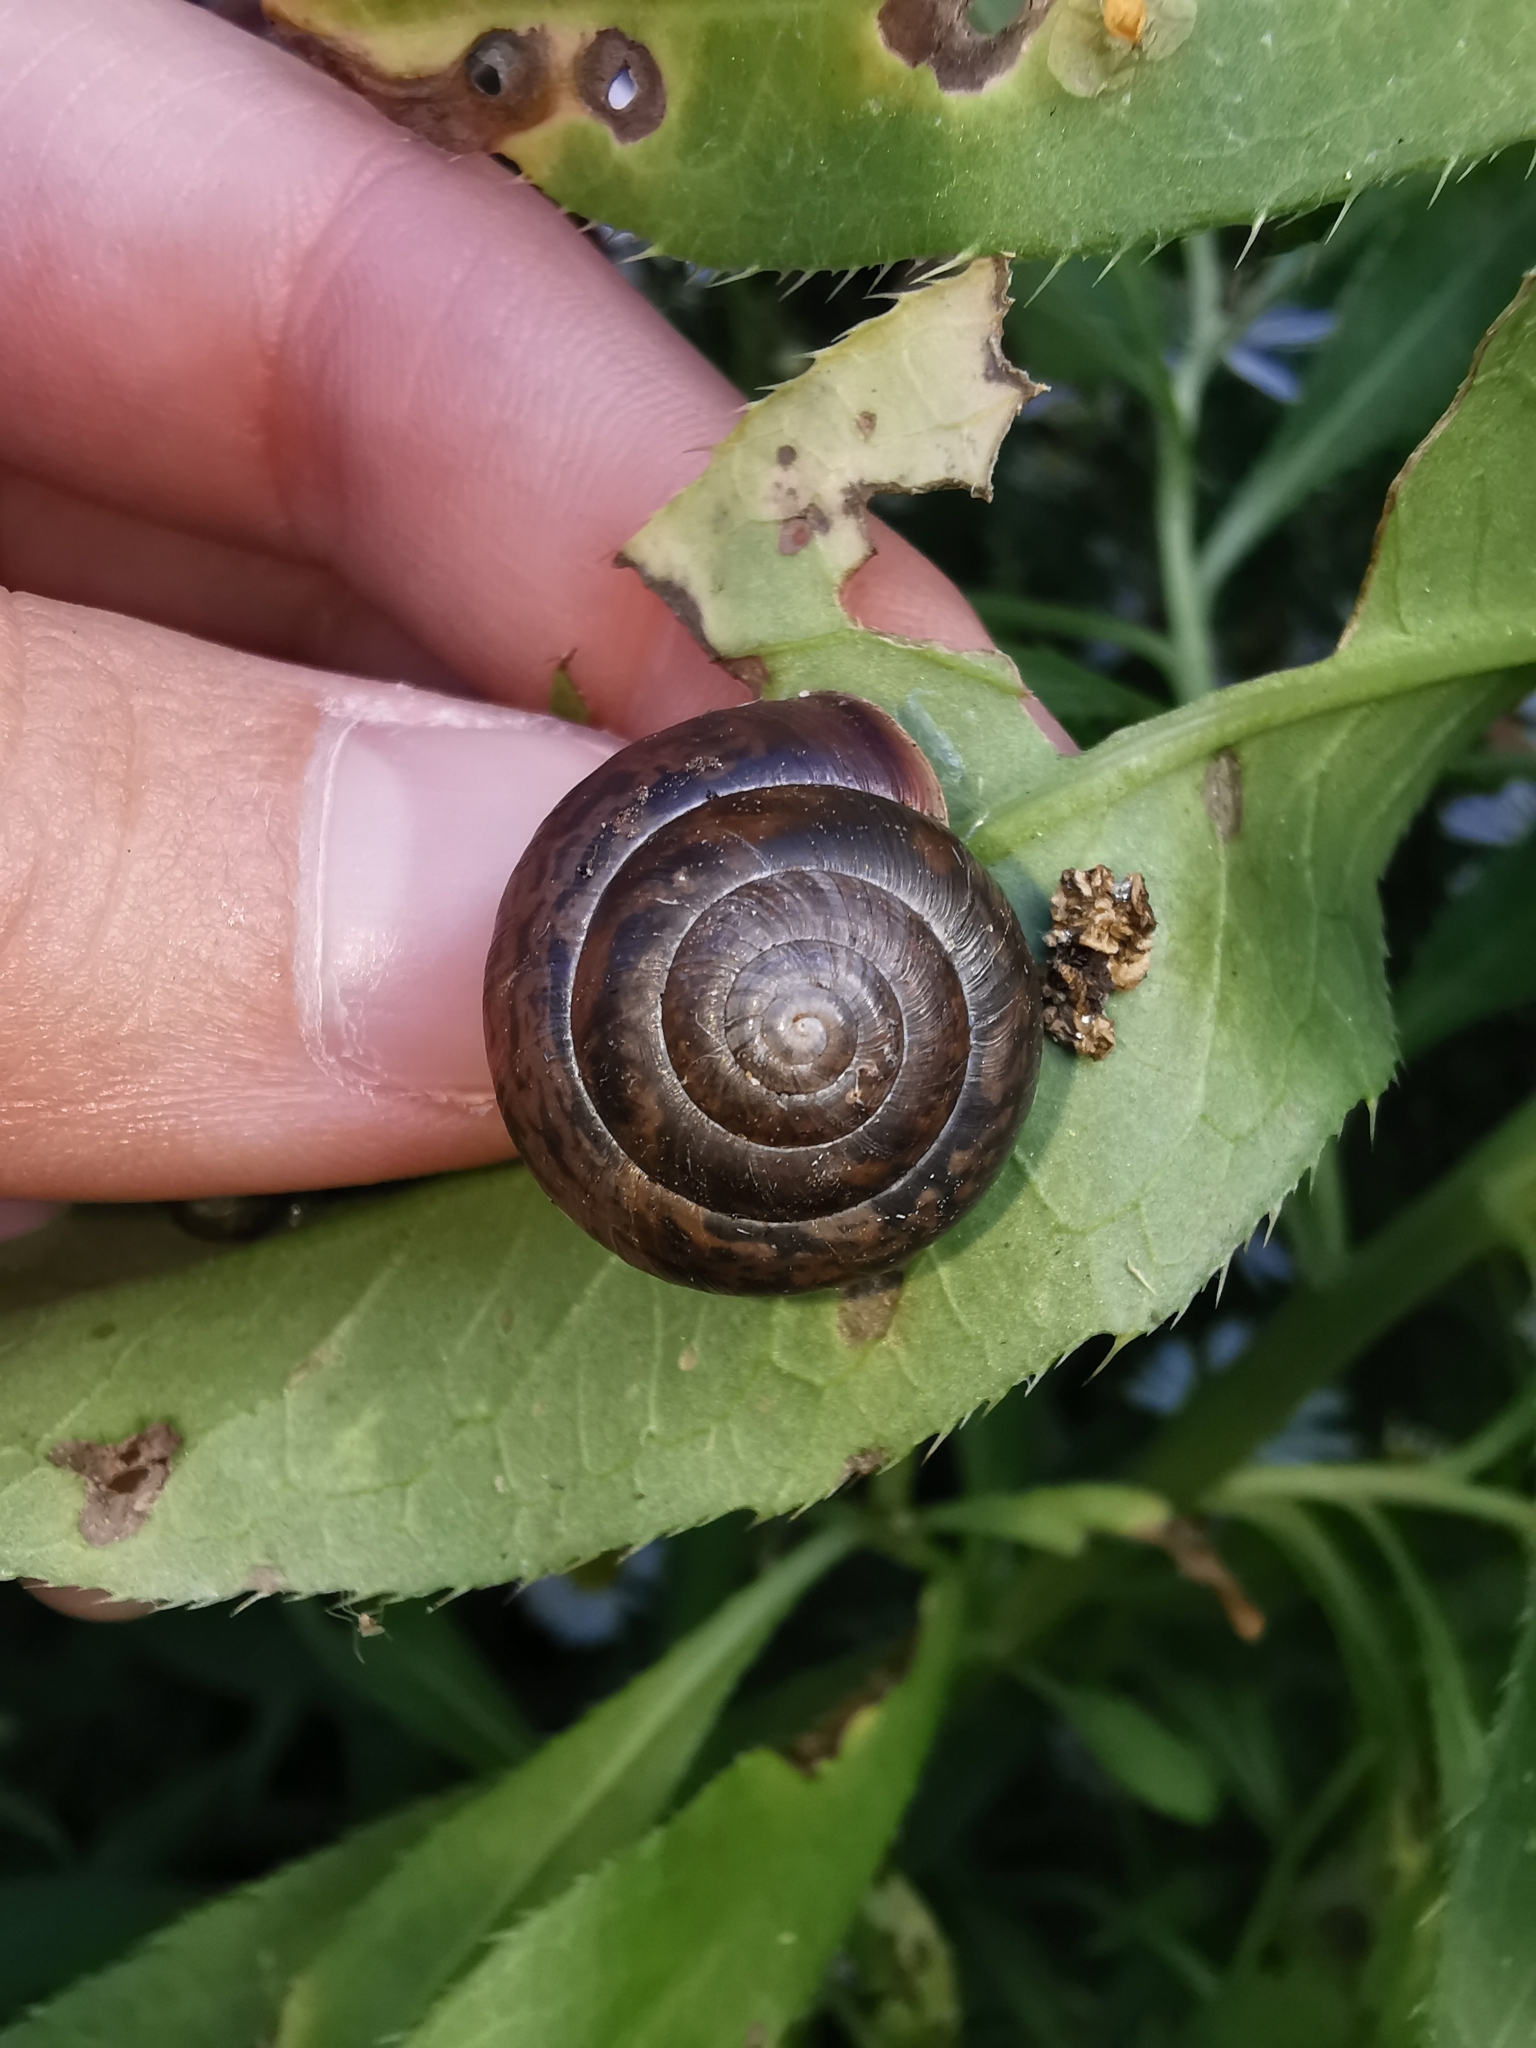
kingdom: Animalia
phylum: Mollusca
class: Gastropoda
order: Stylommatophora
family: Camaenidae
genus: Fruticicola
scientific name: Fruticicola fruticum
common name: Bush snail
